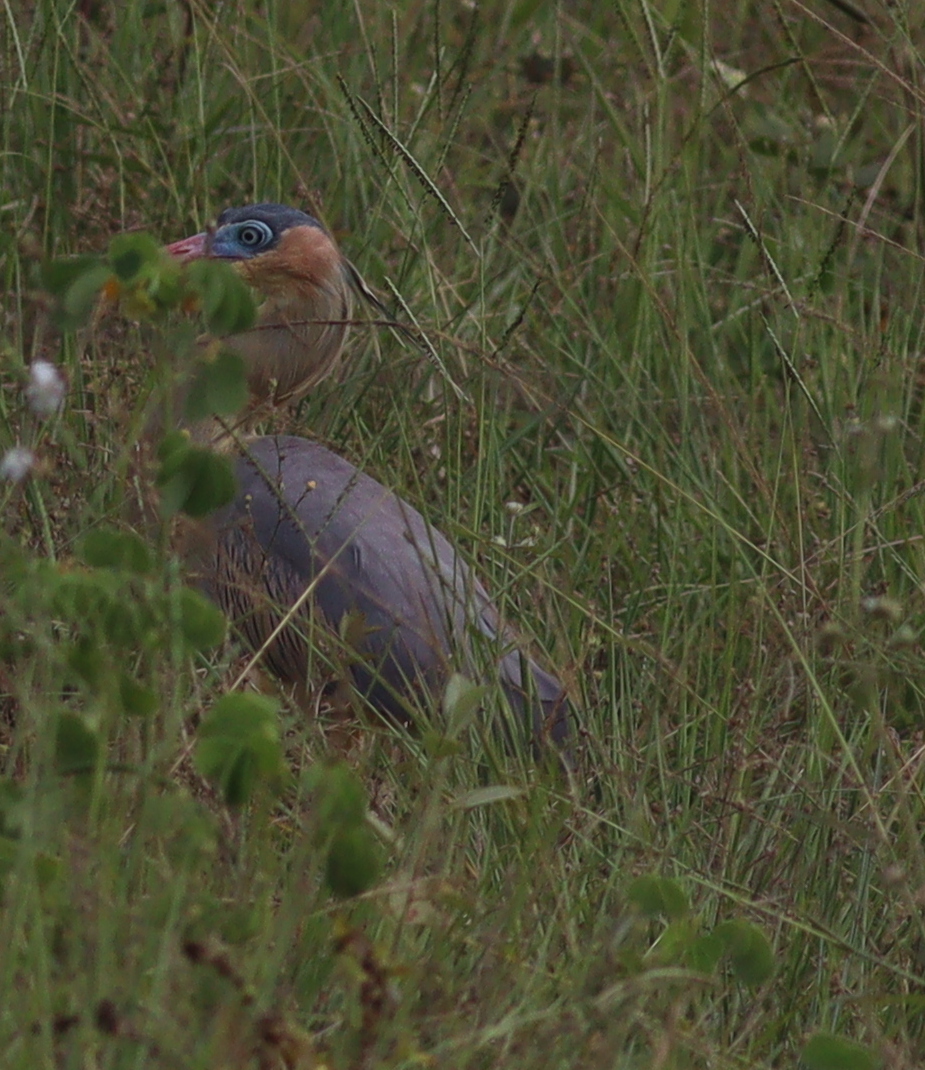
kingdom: Animalia
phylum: Chordata
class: Aves
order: Pelecaniformes
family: Ardeidae
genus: Syrigma
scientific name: Syrigma sibilatrix
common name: Whistling heron
